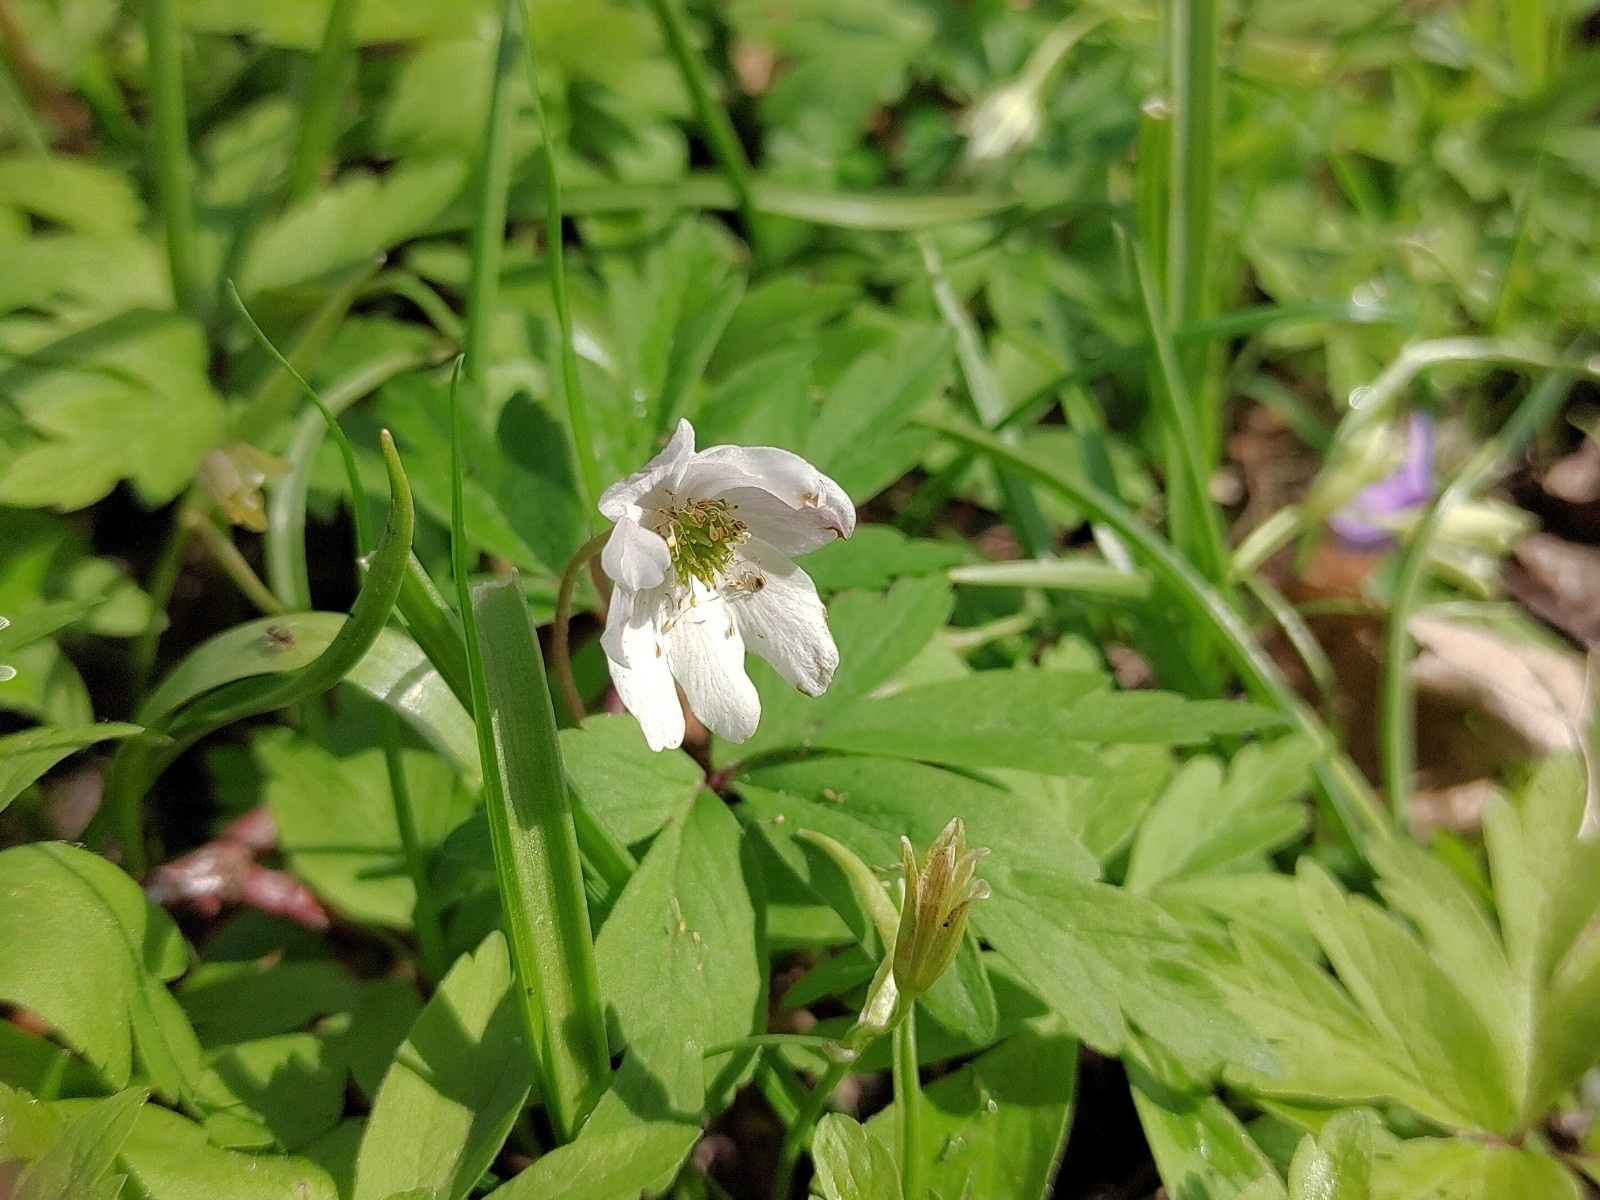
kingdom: Plantae
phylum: Tracheophyta
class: Magnoliopsida
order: Ranunculales
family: Ranunculaceae
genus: Anemone
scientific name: Anemone nemorosa
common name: Wood anemone
